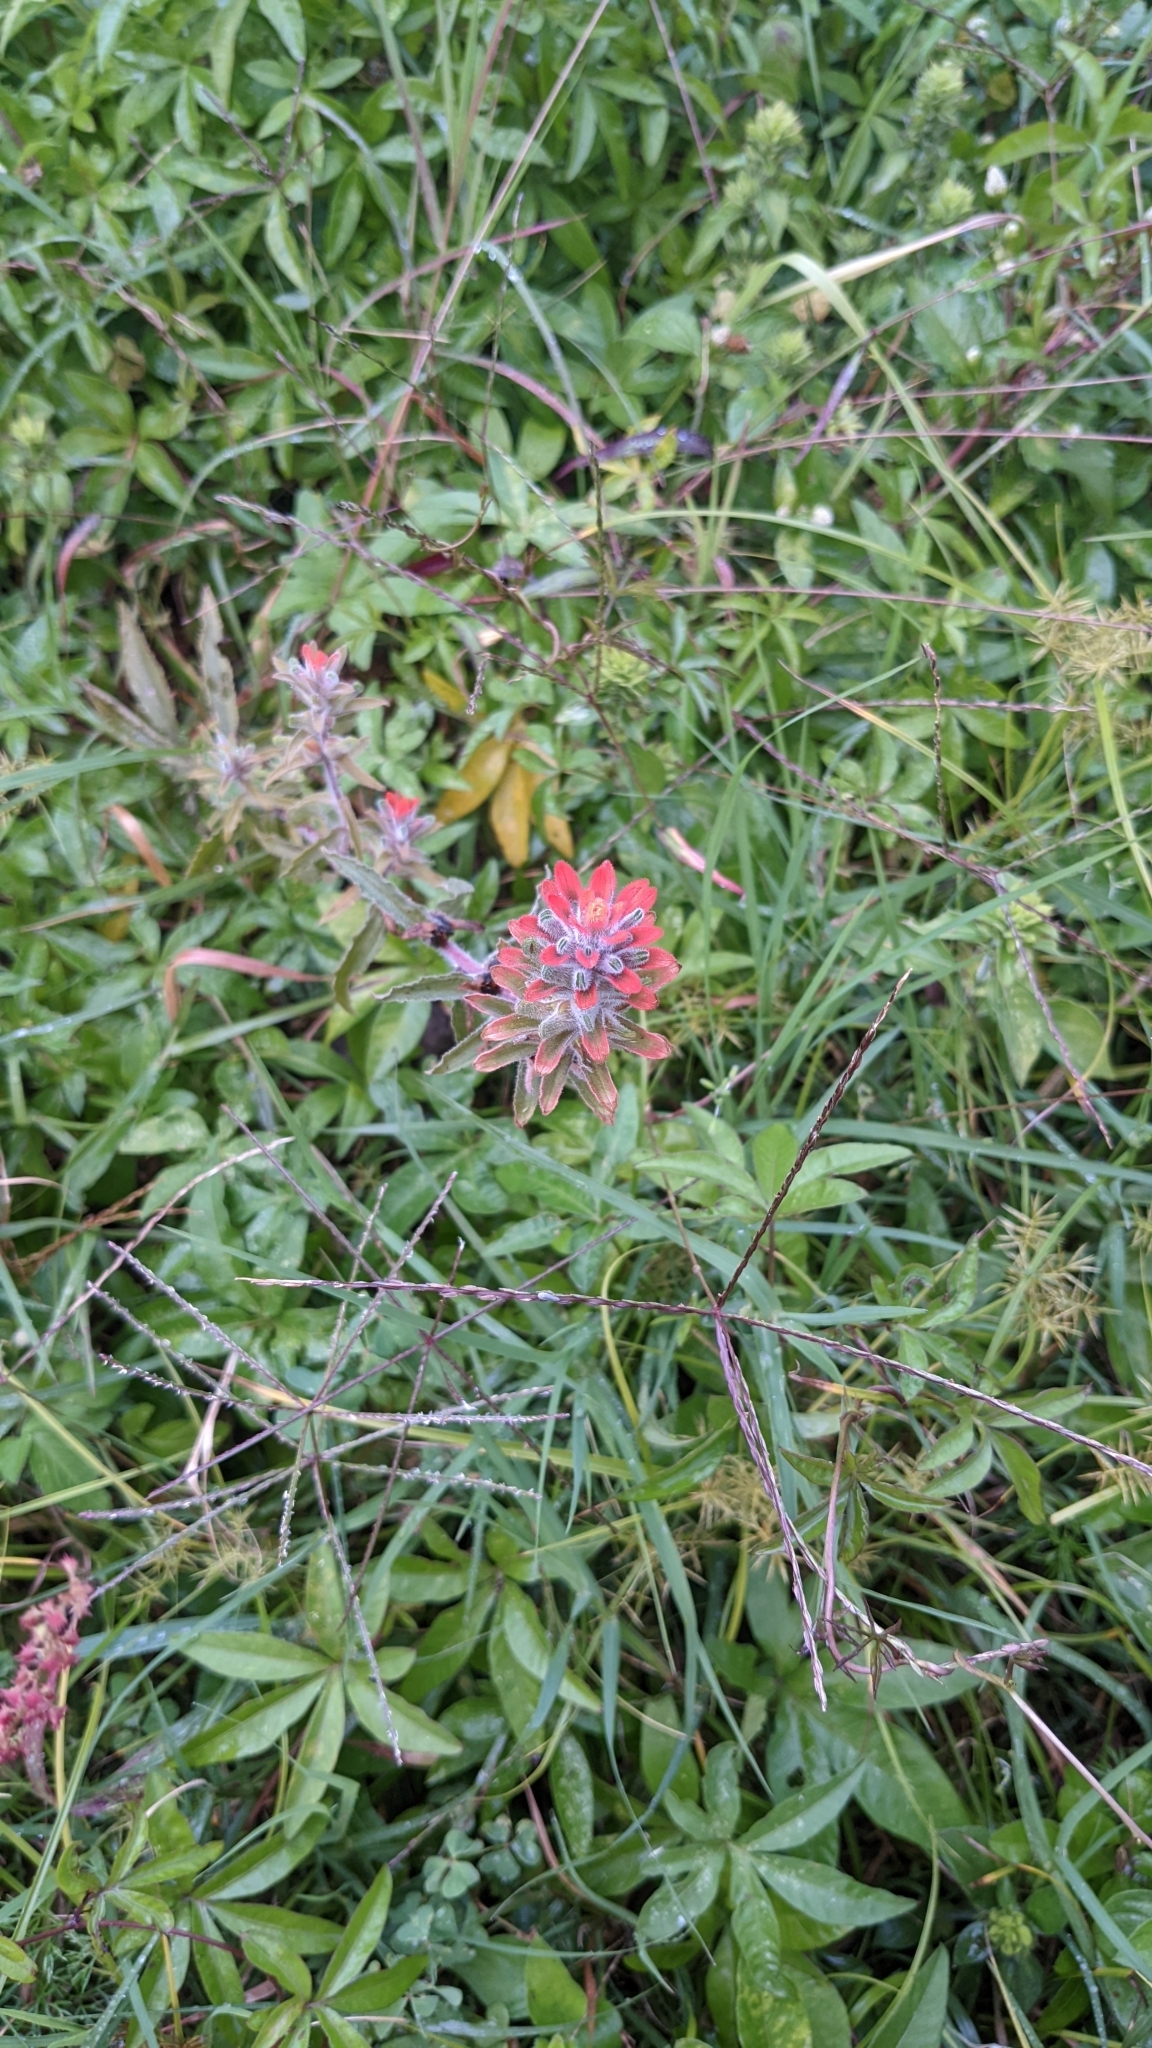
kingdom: Plantae
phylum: Tracheophyta
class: Magnoliopsida
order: Lamiales
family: Orobanchaceae
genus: Castilleja
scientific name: Castilleja arvensis
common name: Indian paintbrush
